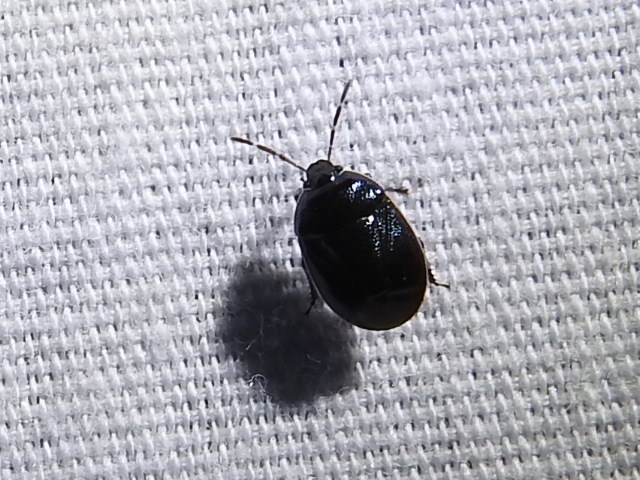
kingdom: Animalia
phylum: Arthropoda
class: Insecta
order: Hemiptera
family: Cydnidae
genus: Sehirus
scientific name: Sehirus cinctus
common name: White-margined burrower bug
